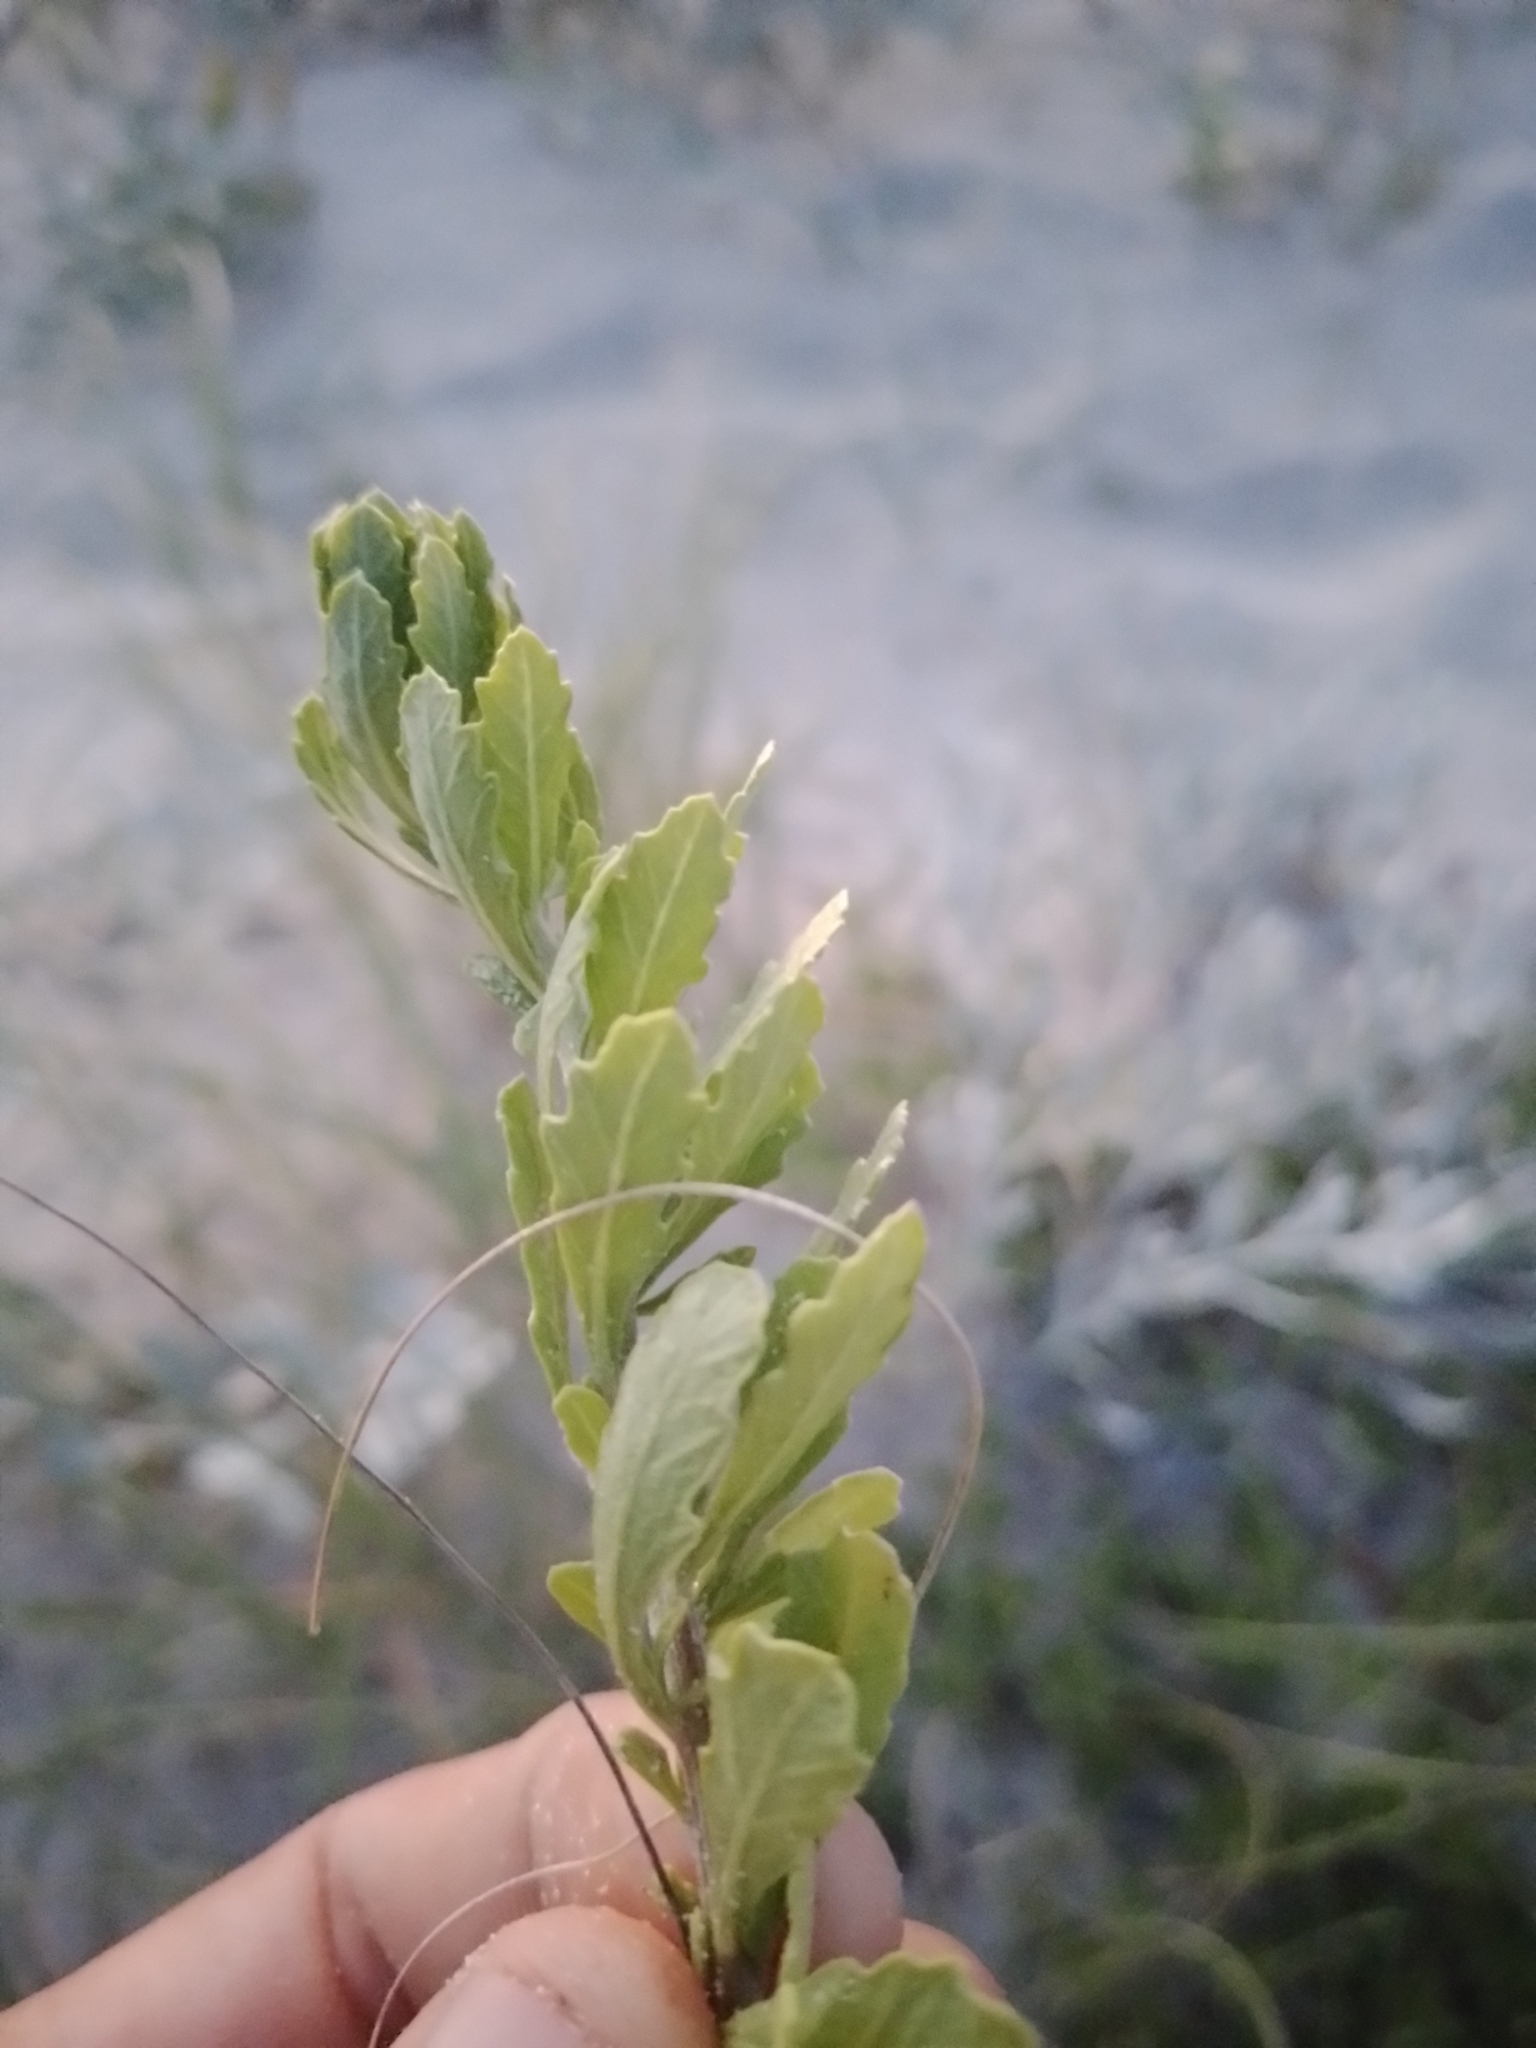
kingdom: Plantae
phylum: Tracheophyta
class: Magnoliopsida
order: Caryophyllales
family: Amaranthaceae
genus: Dysphania
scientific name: Dysphania retusa
